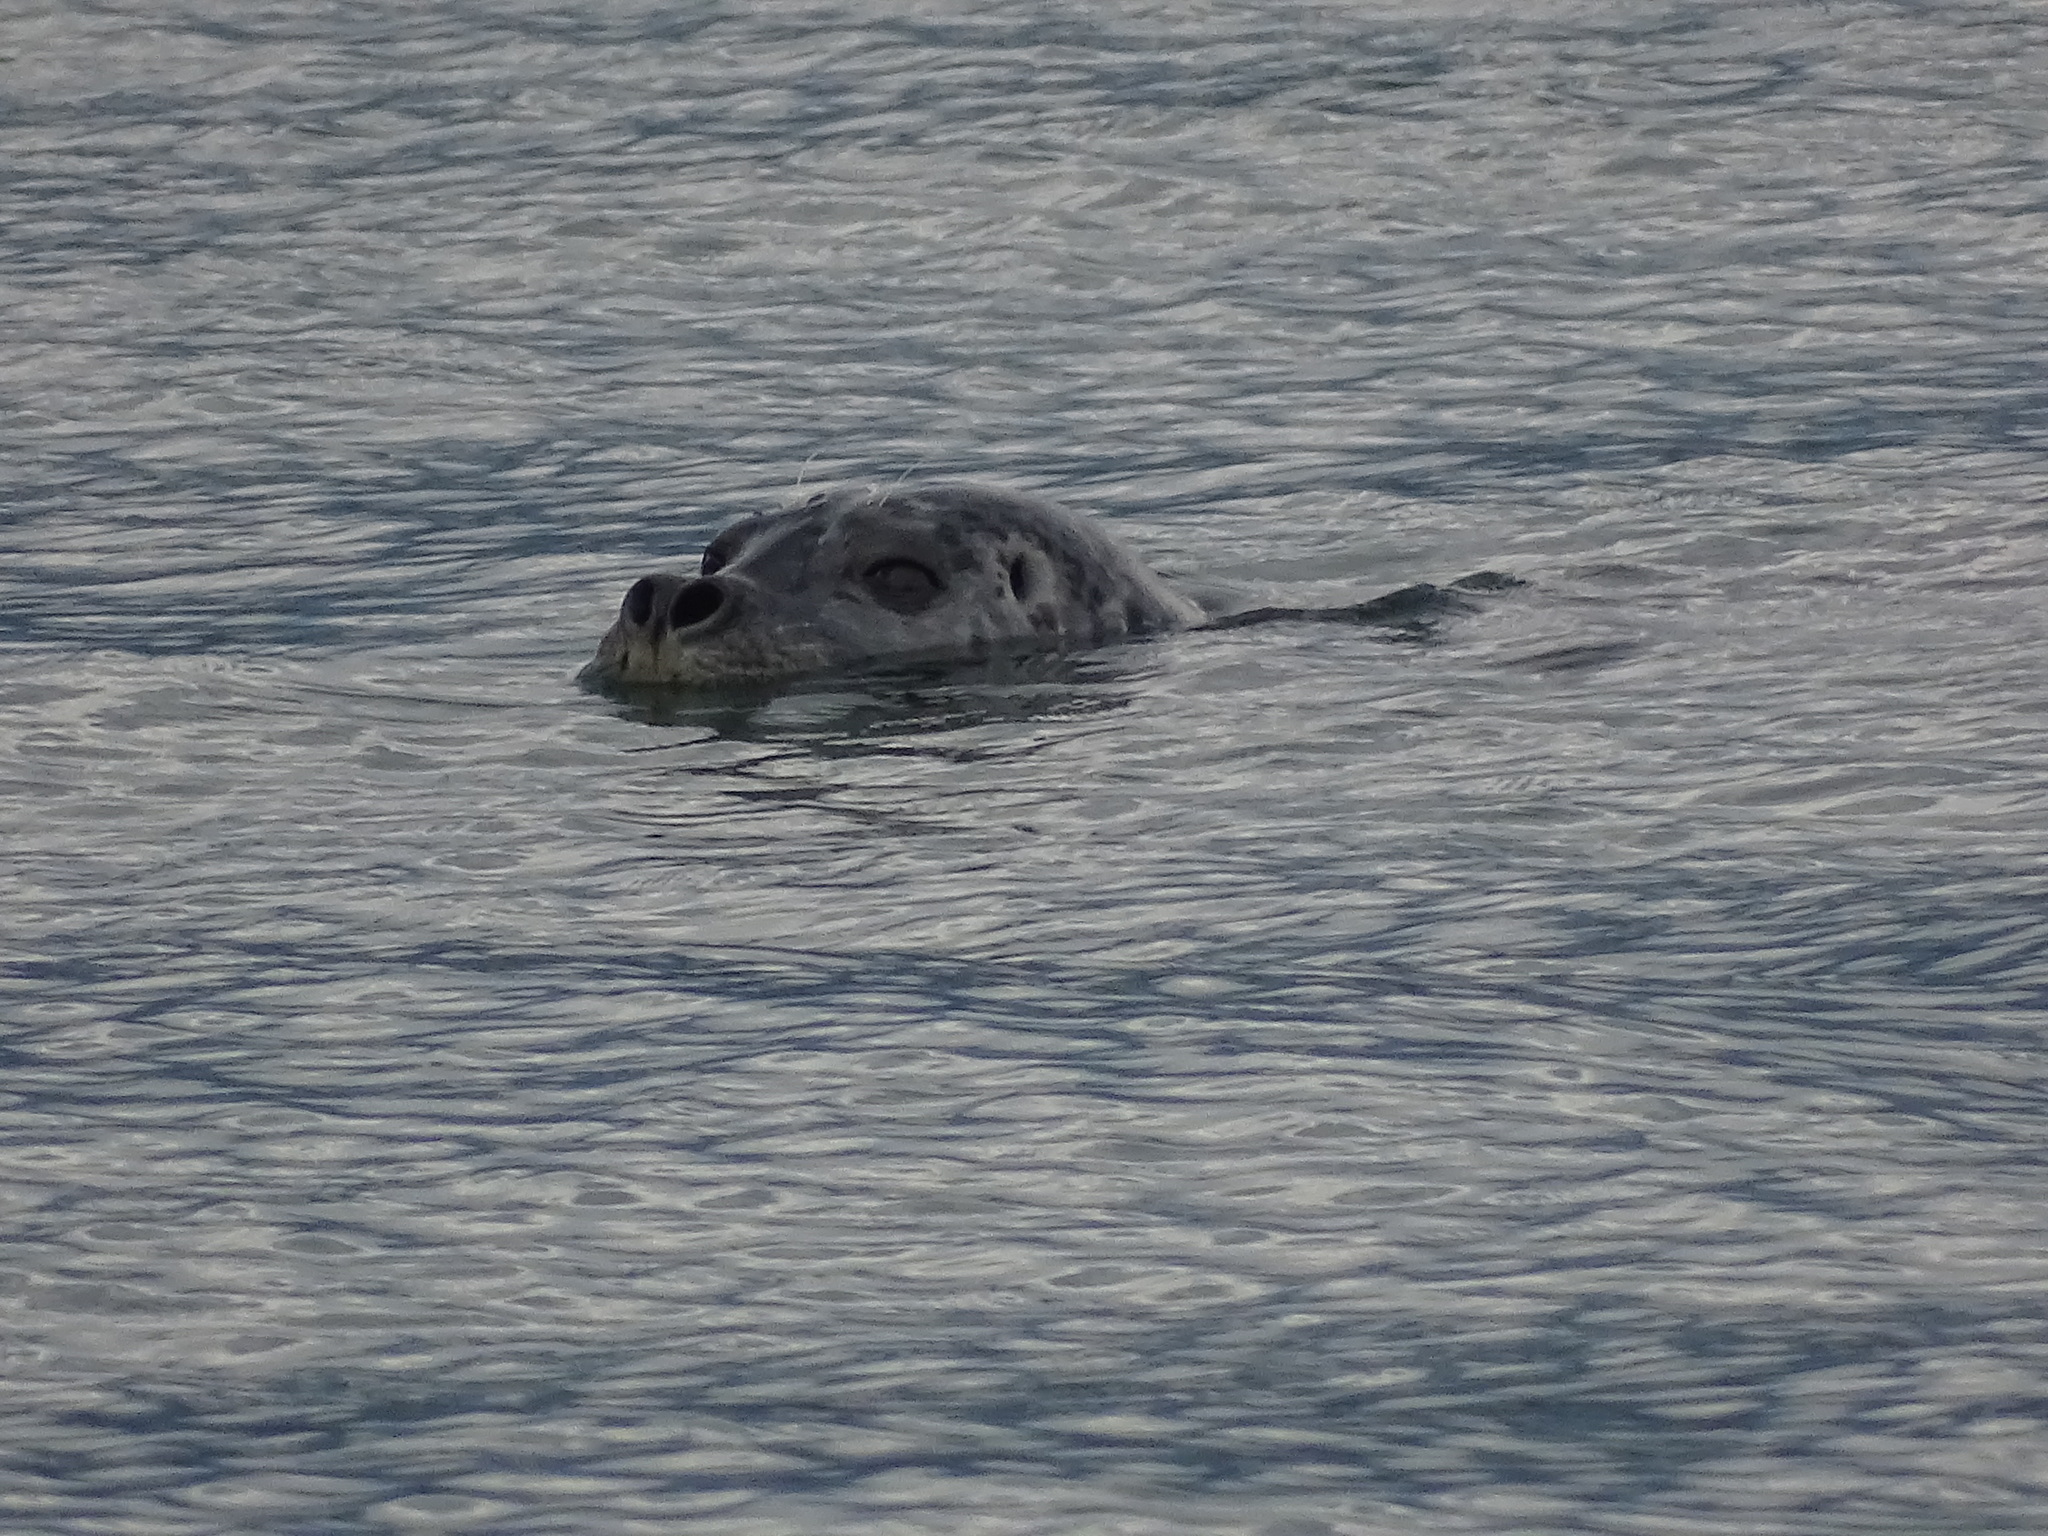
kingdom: Animalia
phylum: Chordata
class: Mammalia
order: Carnivora
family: Phocidae
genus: Phoca
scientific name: Phoca vitulina
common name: Harbor seal
